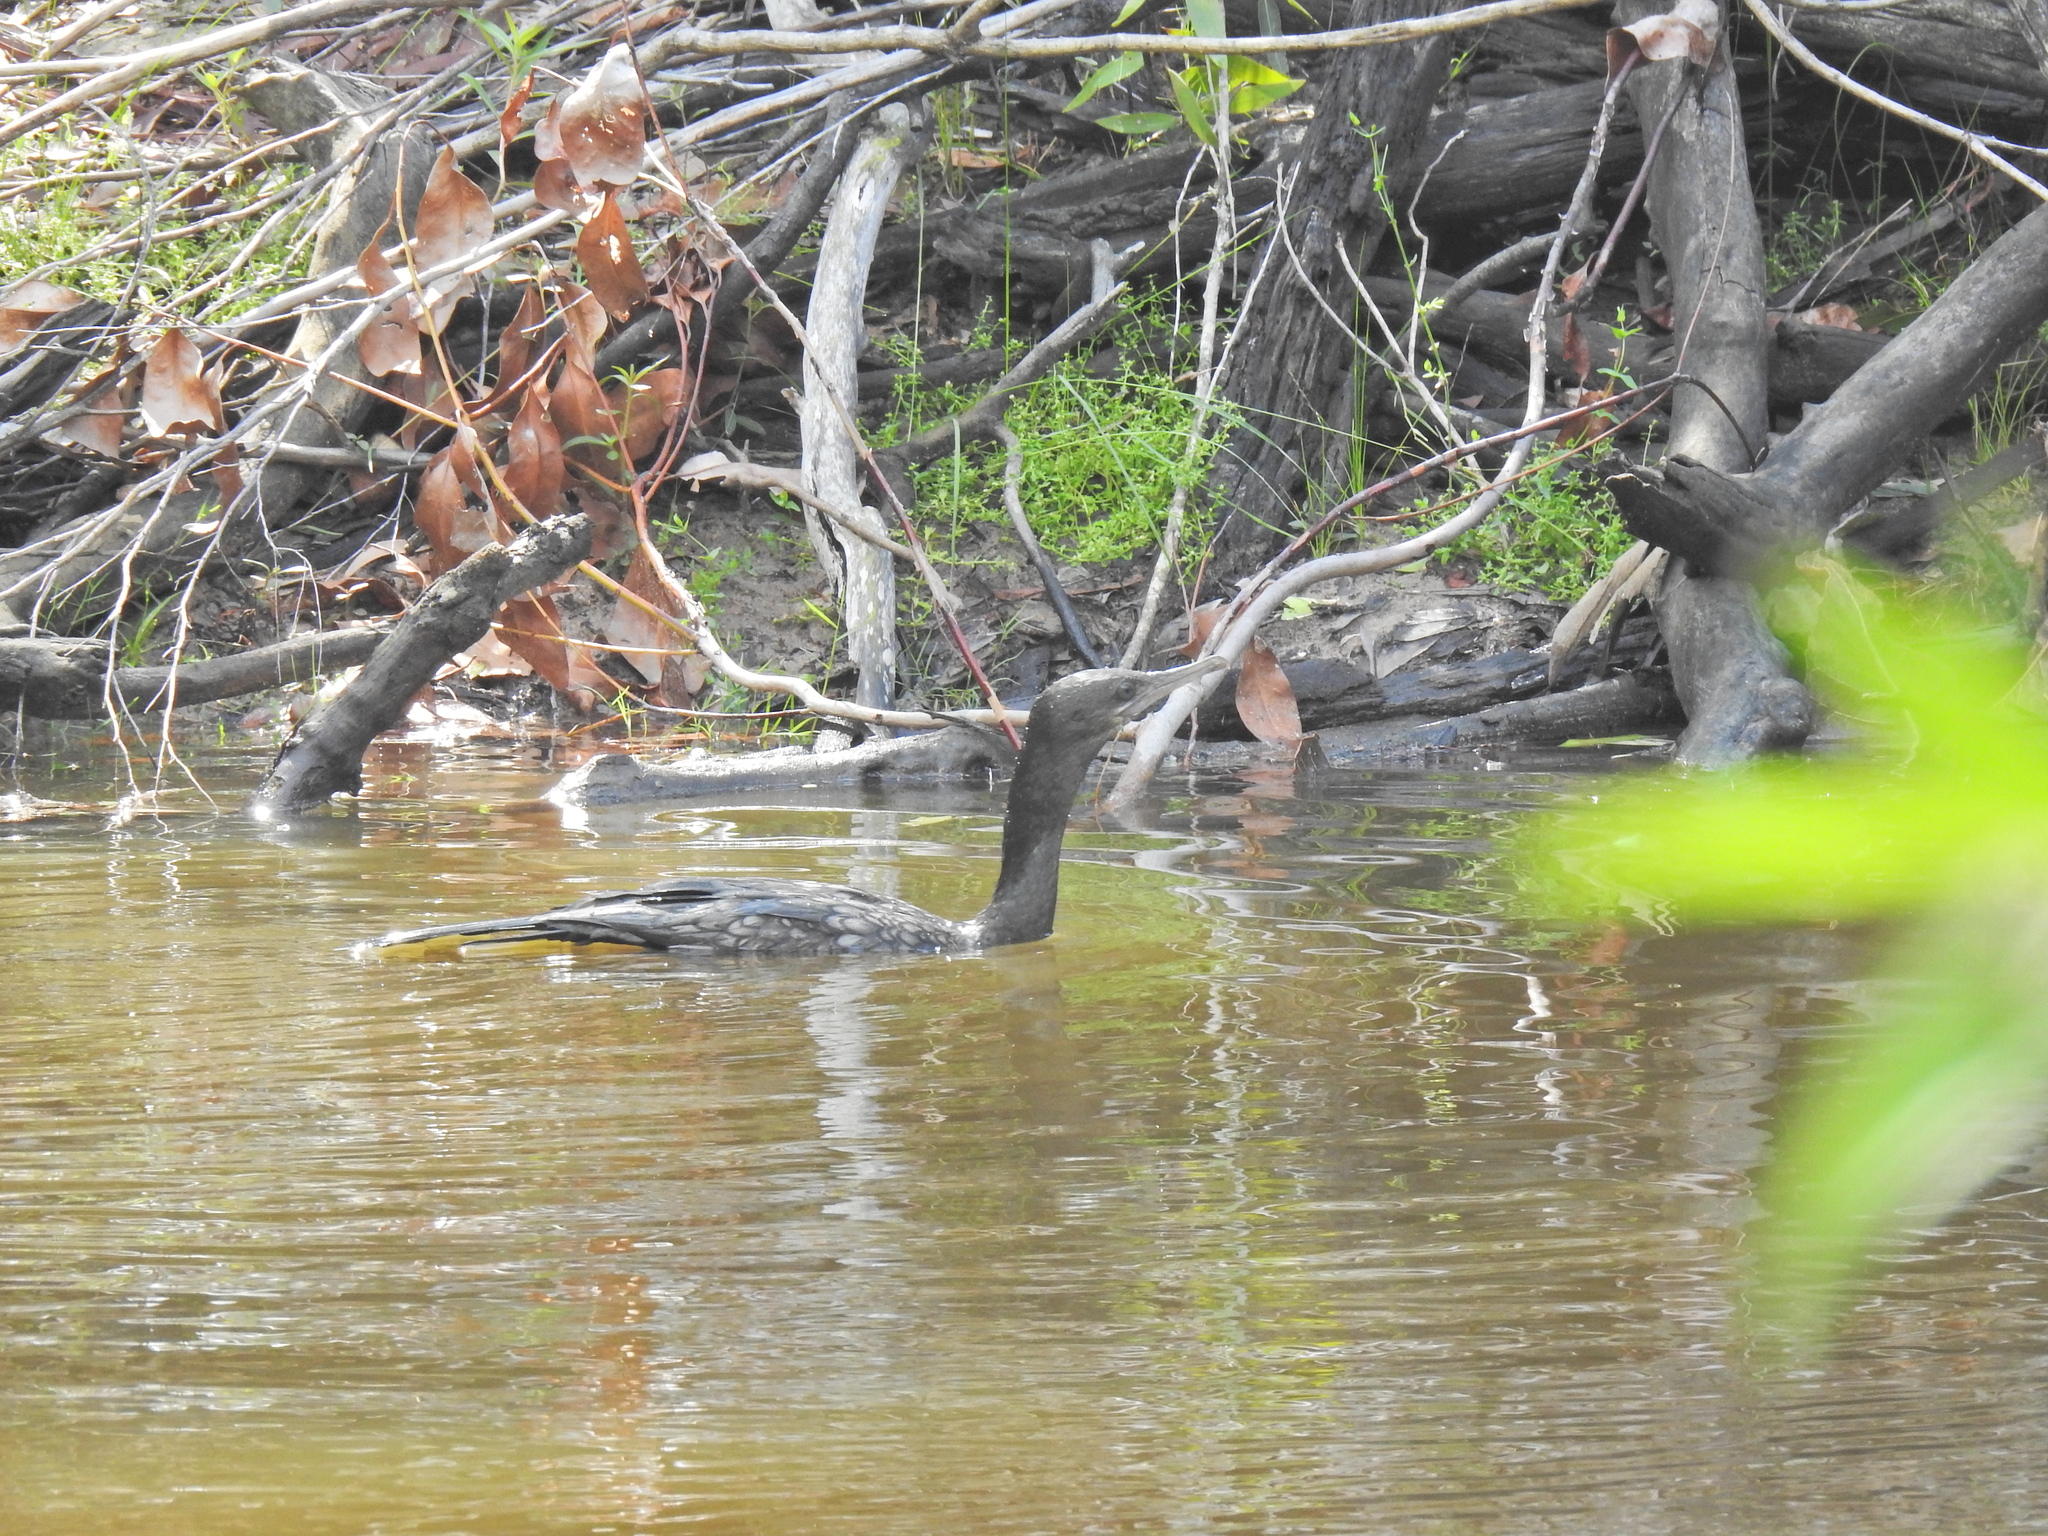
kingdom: Animalia
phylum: Chordata
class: Aves
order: Suliformes
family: Phalacrocoracidae
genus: Phalacrocorax
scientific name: Phalacrocorax sulcirostris
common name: Little black cormorant
